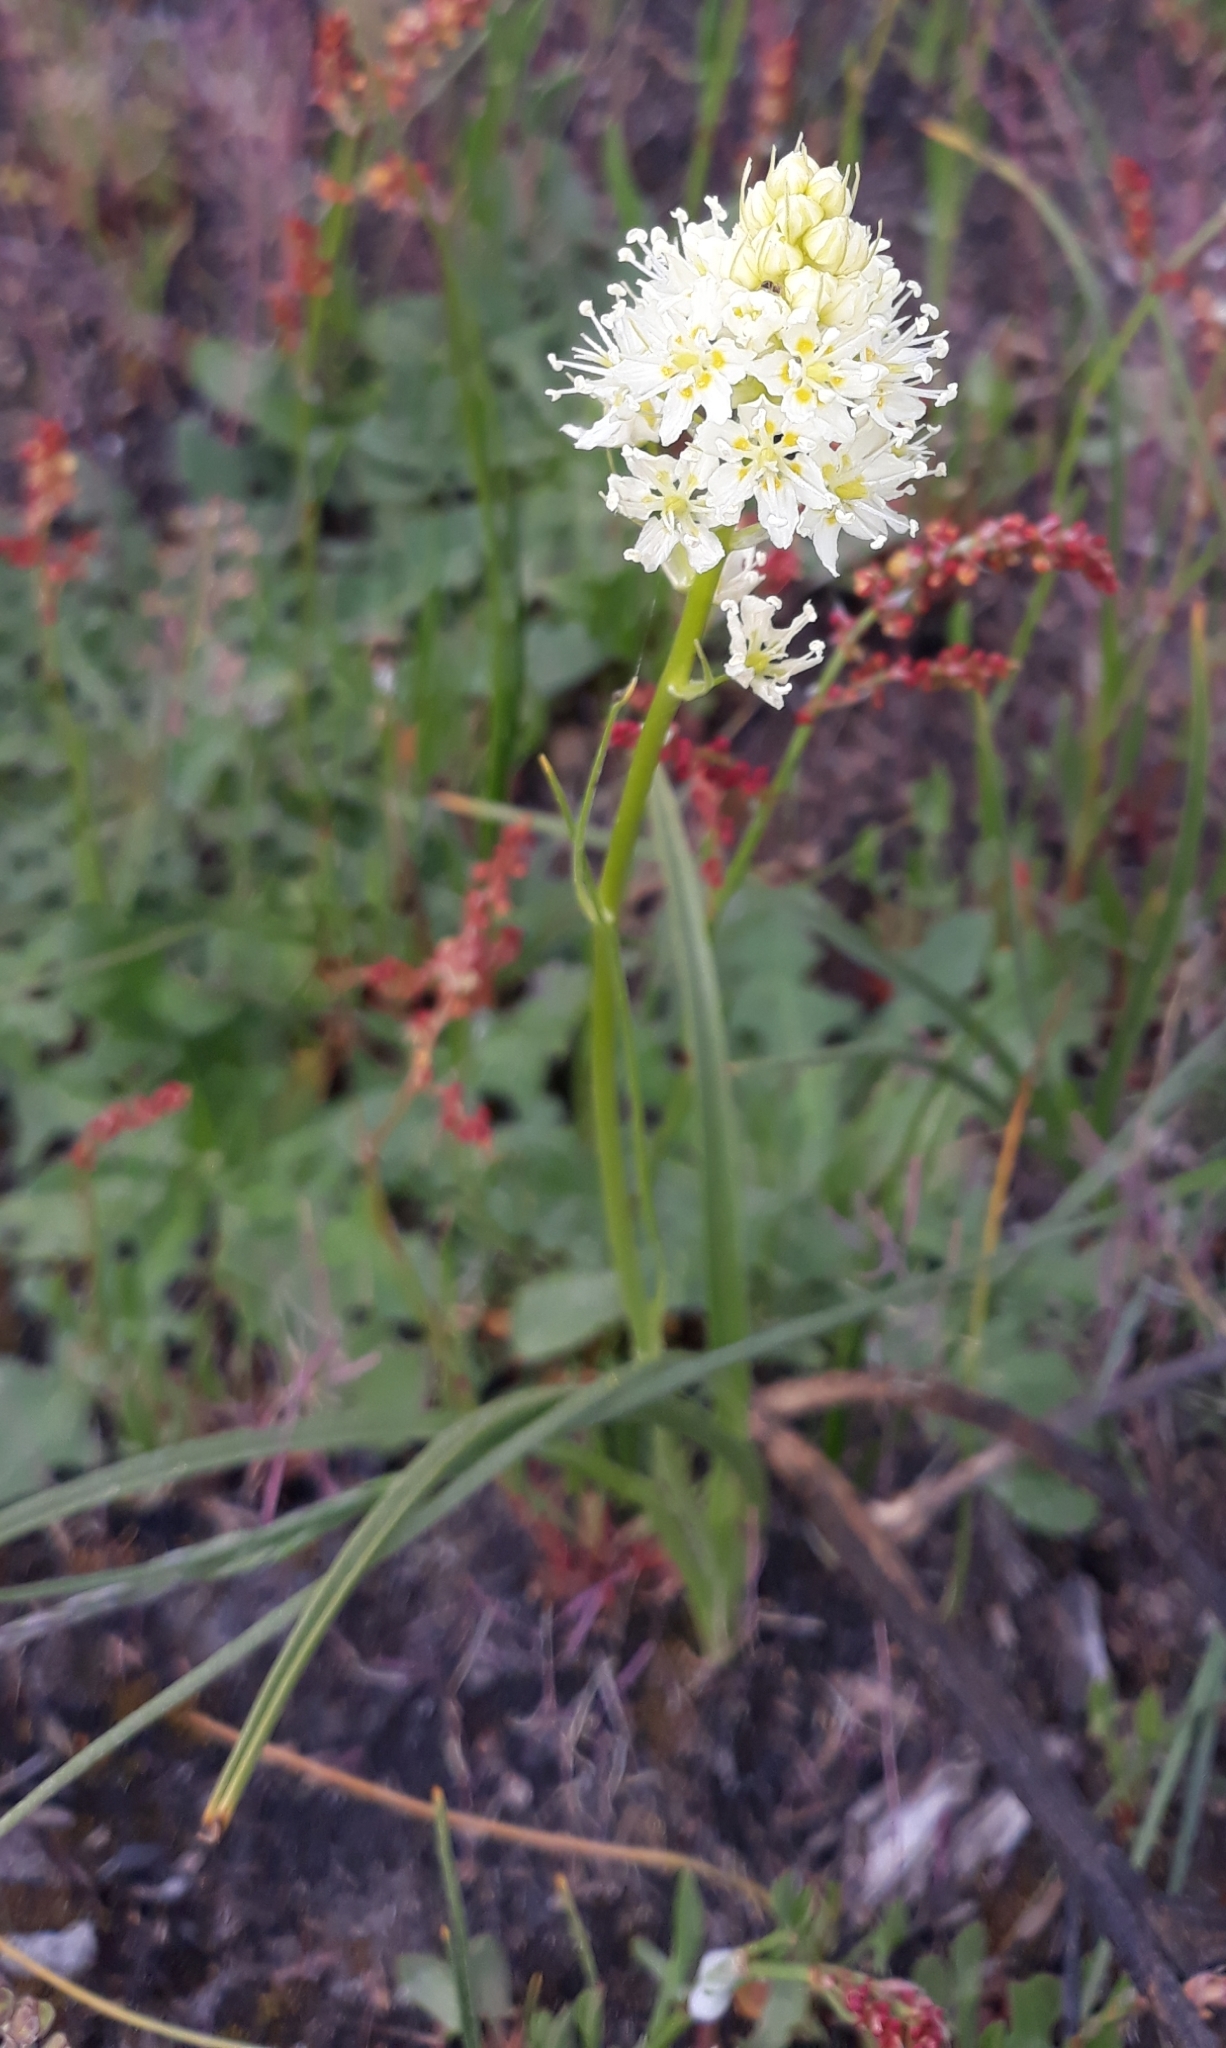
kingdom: Plantae
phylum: Tracheophyta
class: Liliopsida
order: Liliales
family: Melanthiaceae
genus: Toxicoscordion
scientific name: Toxicoscordion venenosum
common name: Meadow death camas
